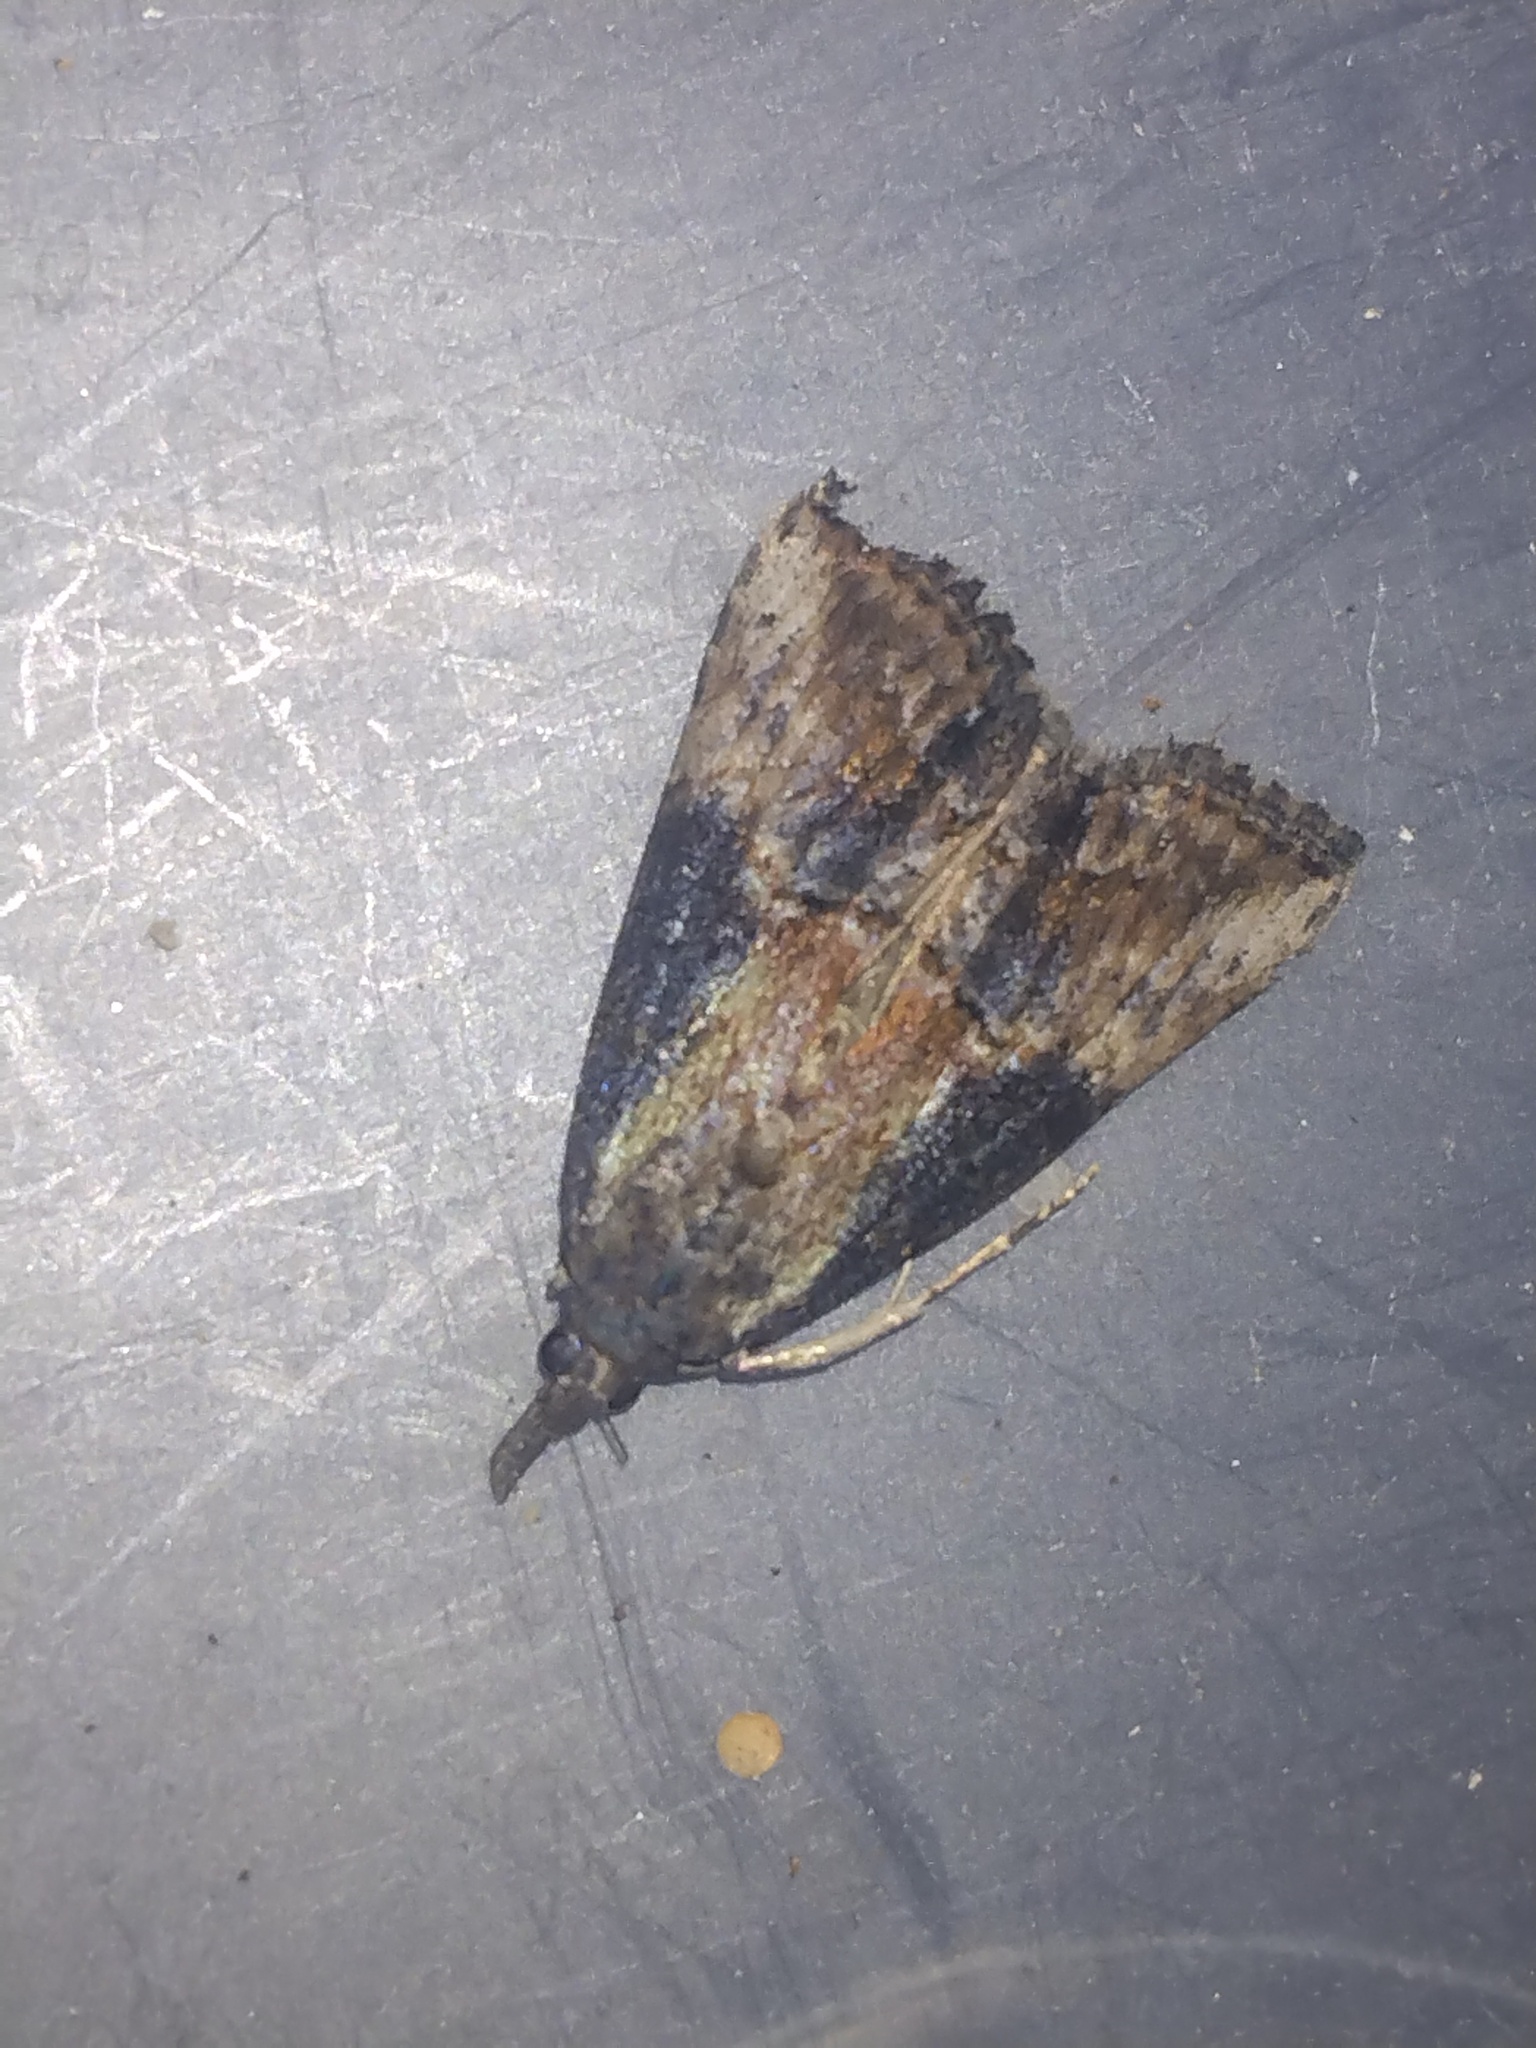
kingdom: Animalia
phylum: Arthropoda
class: Insecta
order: Lepidoptera
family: Erebidae
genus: Hypena
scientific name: Hypena scabra
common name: Green cloverworm
